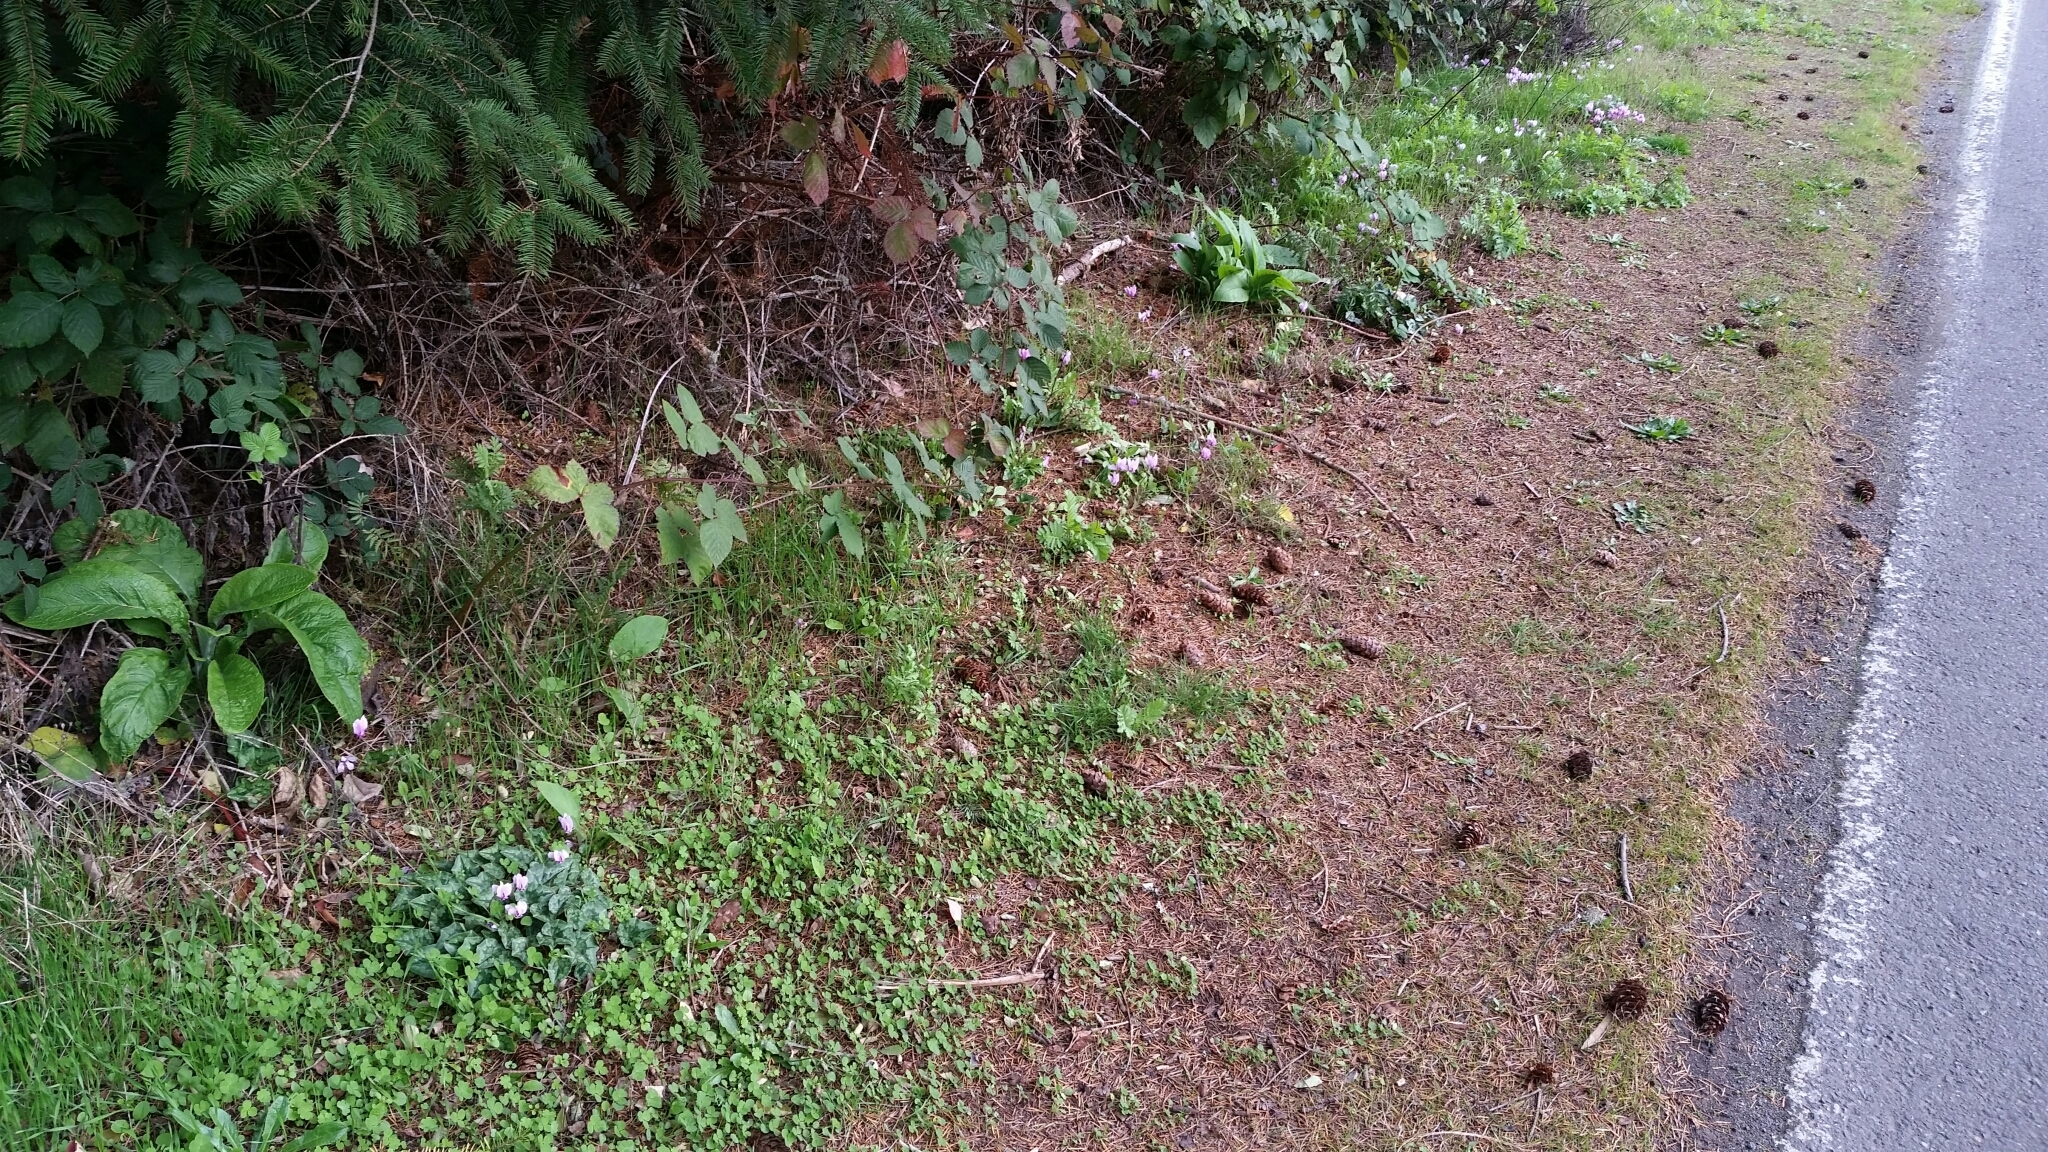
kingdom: Plantae
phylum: Tracheophyta
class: Magnoliopsida
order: Ericales
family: Primulaceae
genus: Cyclamen
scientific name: Cyclamen hederifolium
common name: Sowbread
